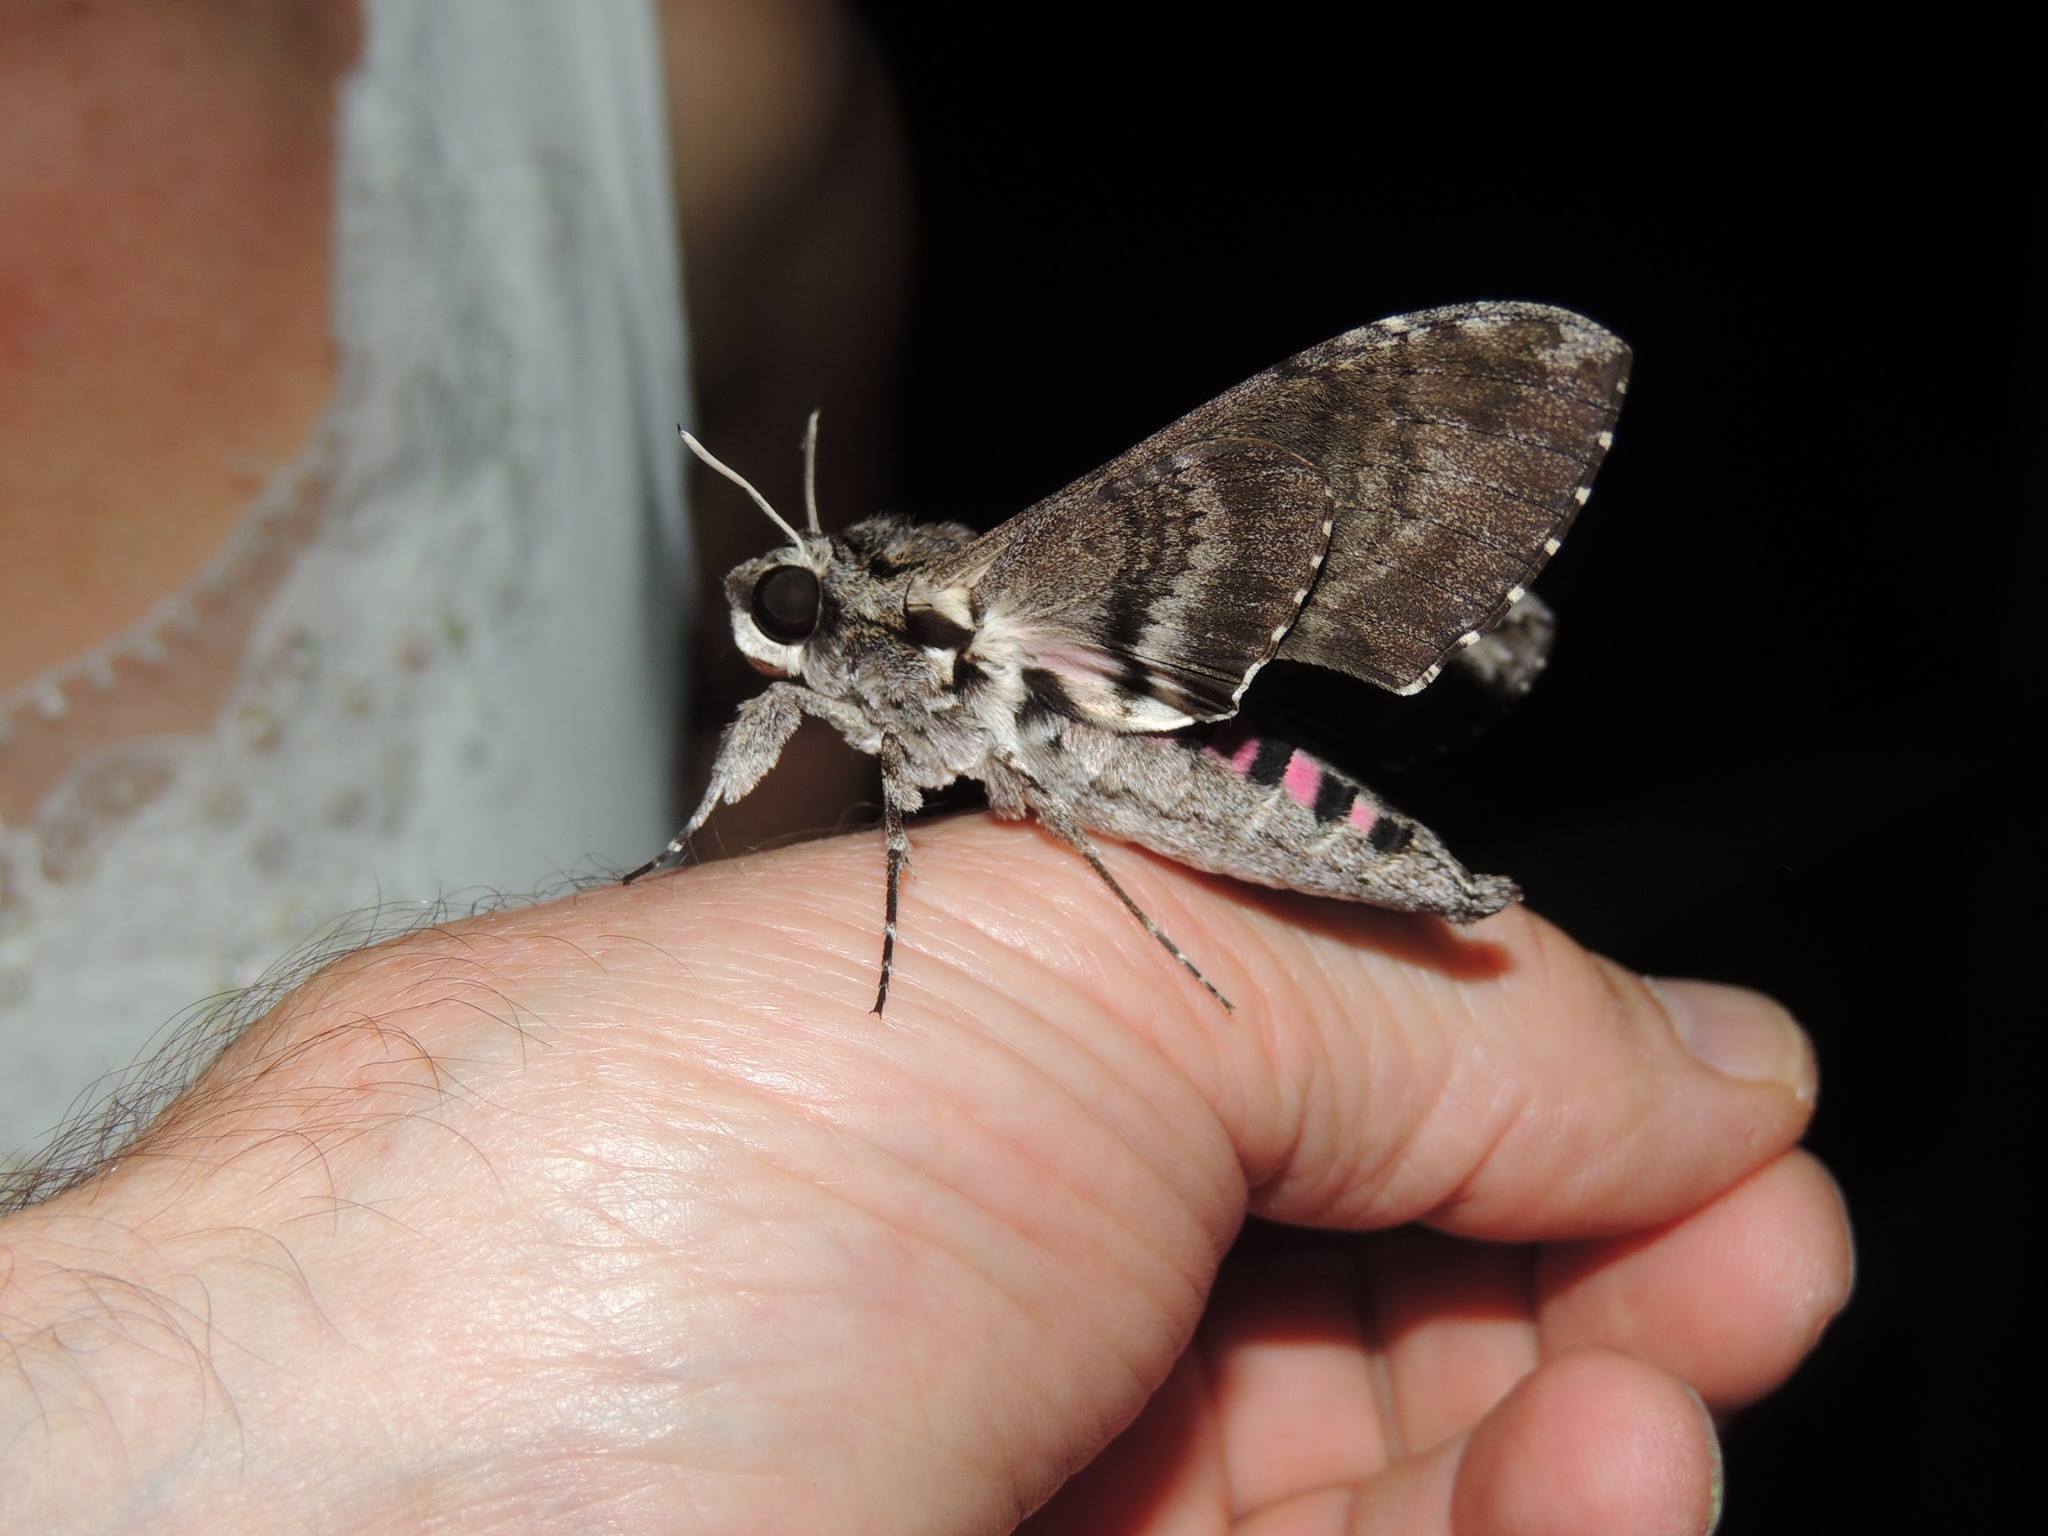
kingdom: Animalia
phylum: Arthropoda
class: Insecta
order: Lepidoptera
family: Sphingidae
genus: Agrius
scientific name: Agrius cingulata
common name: Pink-spotted hawkmoth
